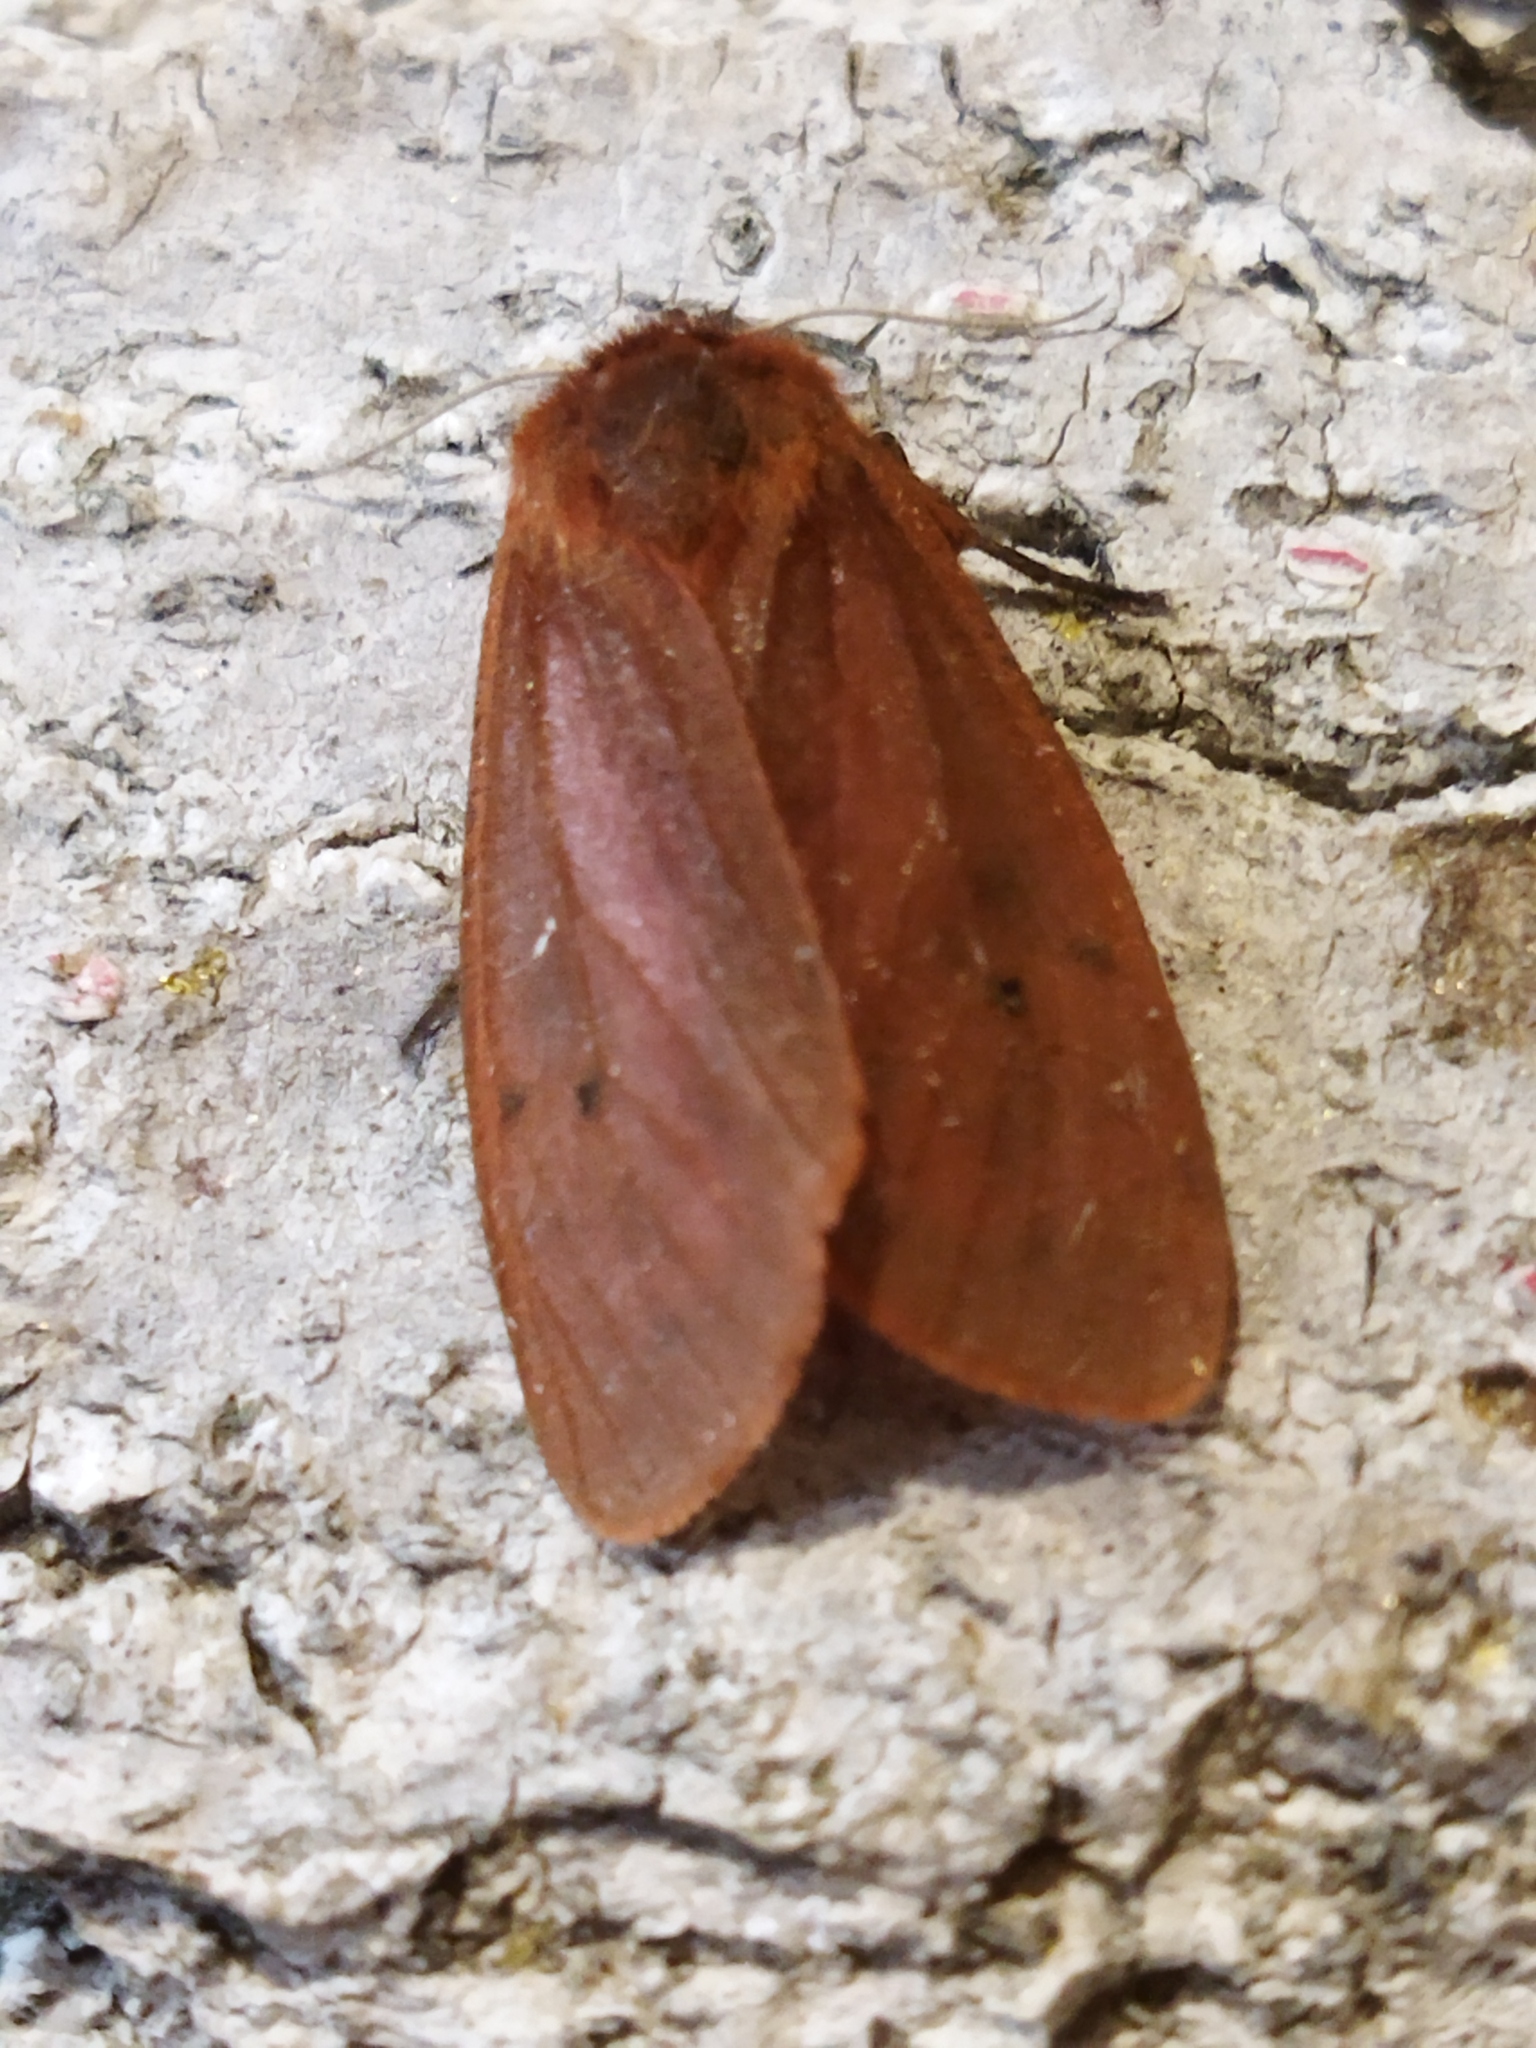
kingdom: Animalia
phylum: Arthropoda
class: Insecta
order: Lepidoptera
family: Erebidae
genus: Phragmatobia
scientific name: Phragmatobia fuliginosa
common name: Ruby tiger
